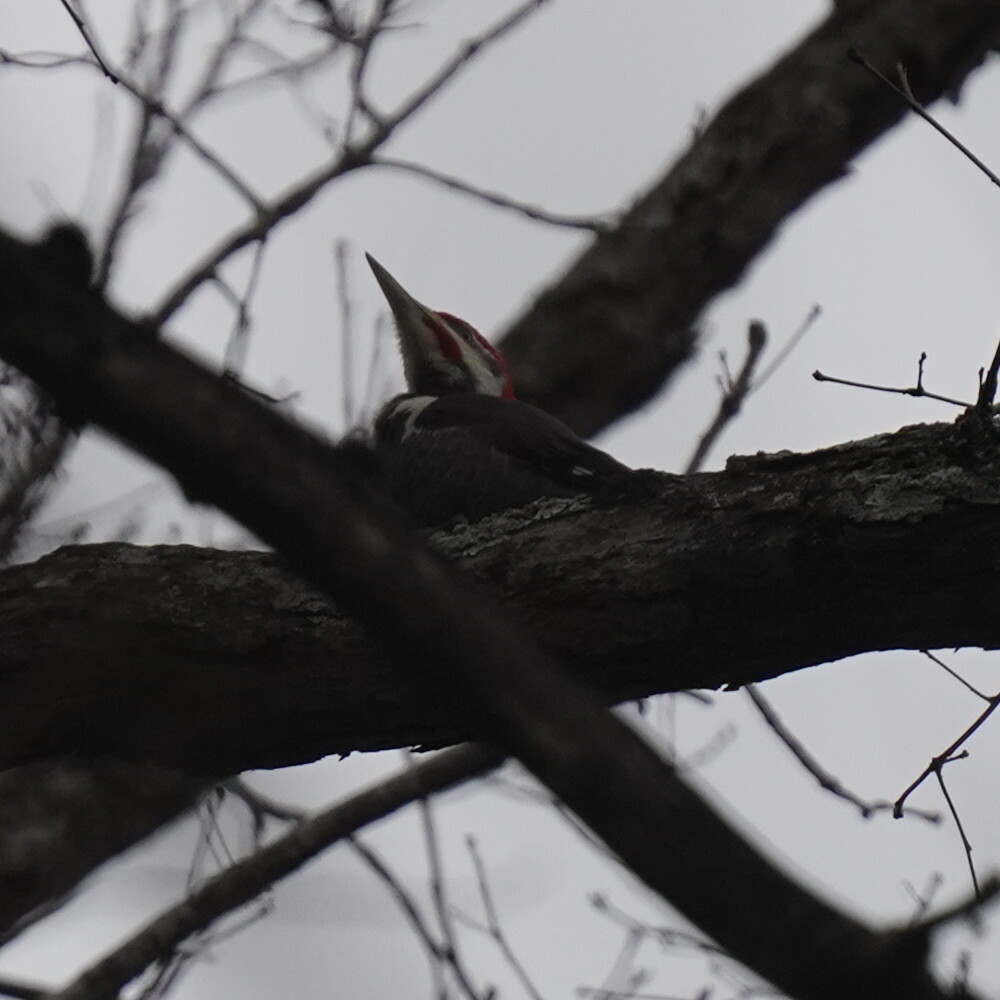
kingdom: Animalia
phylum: Chordata
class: Aves
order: Piciformes
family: Picidae
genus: Dryocopus
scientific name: Dryocopus pileatus
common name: Pileated woodpecker
